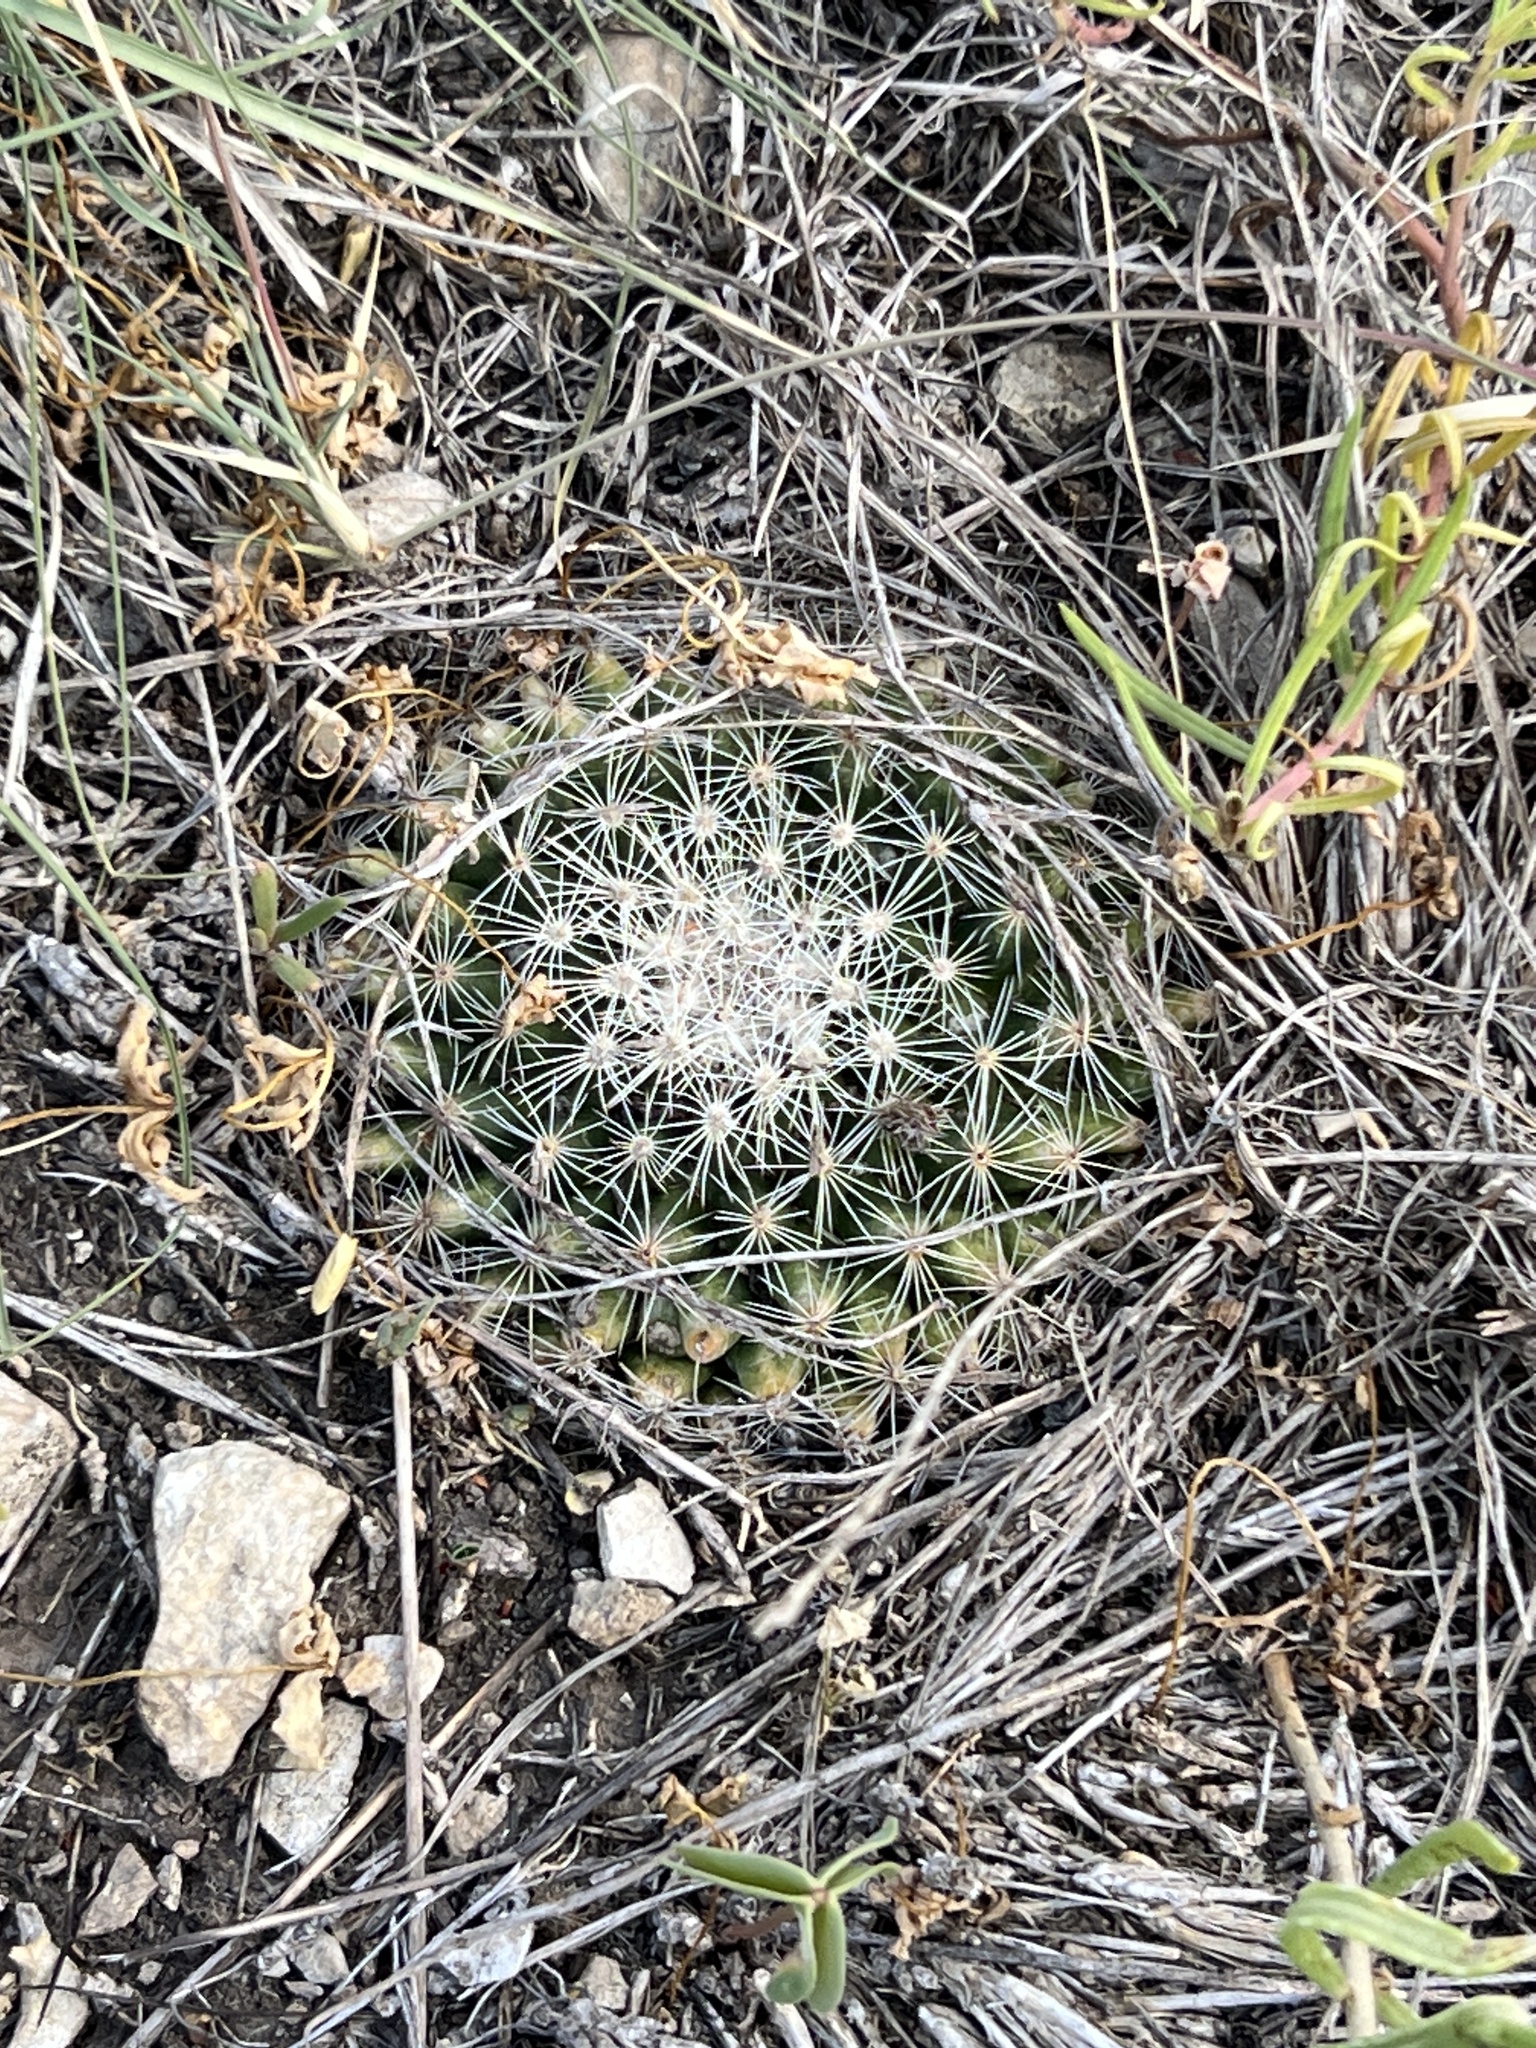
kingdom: Plantae
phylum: Tracheophyta
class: Magnoliopsida
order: Caryophyllales
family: Cactaceae
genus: Mammillaria
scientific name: Mammillaria heyderi
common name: Little nipple cactus
